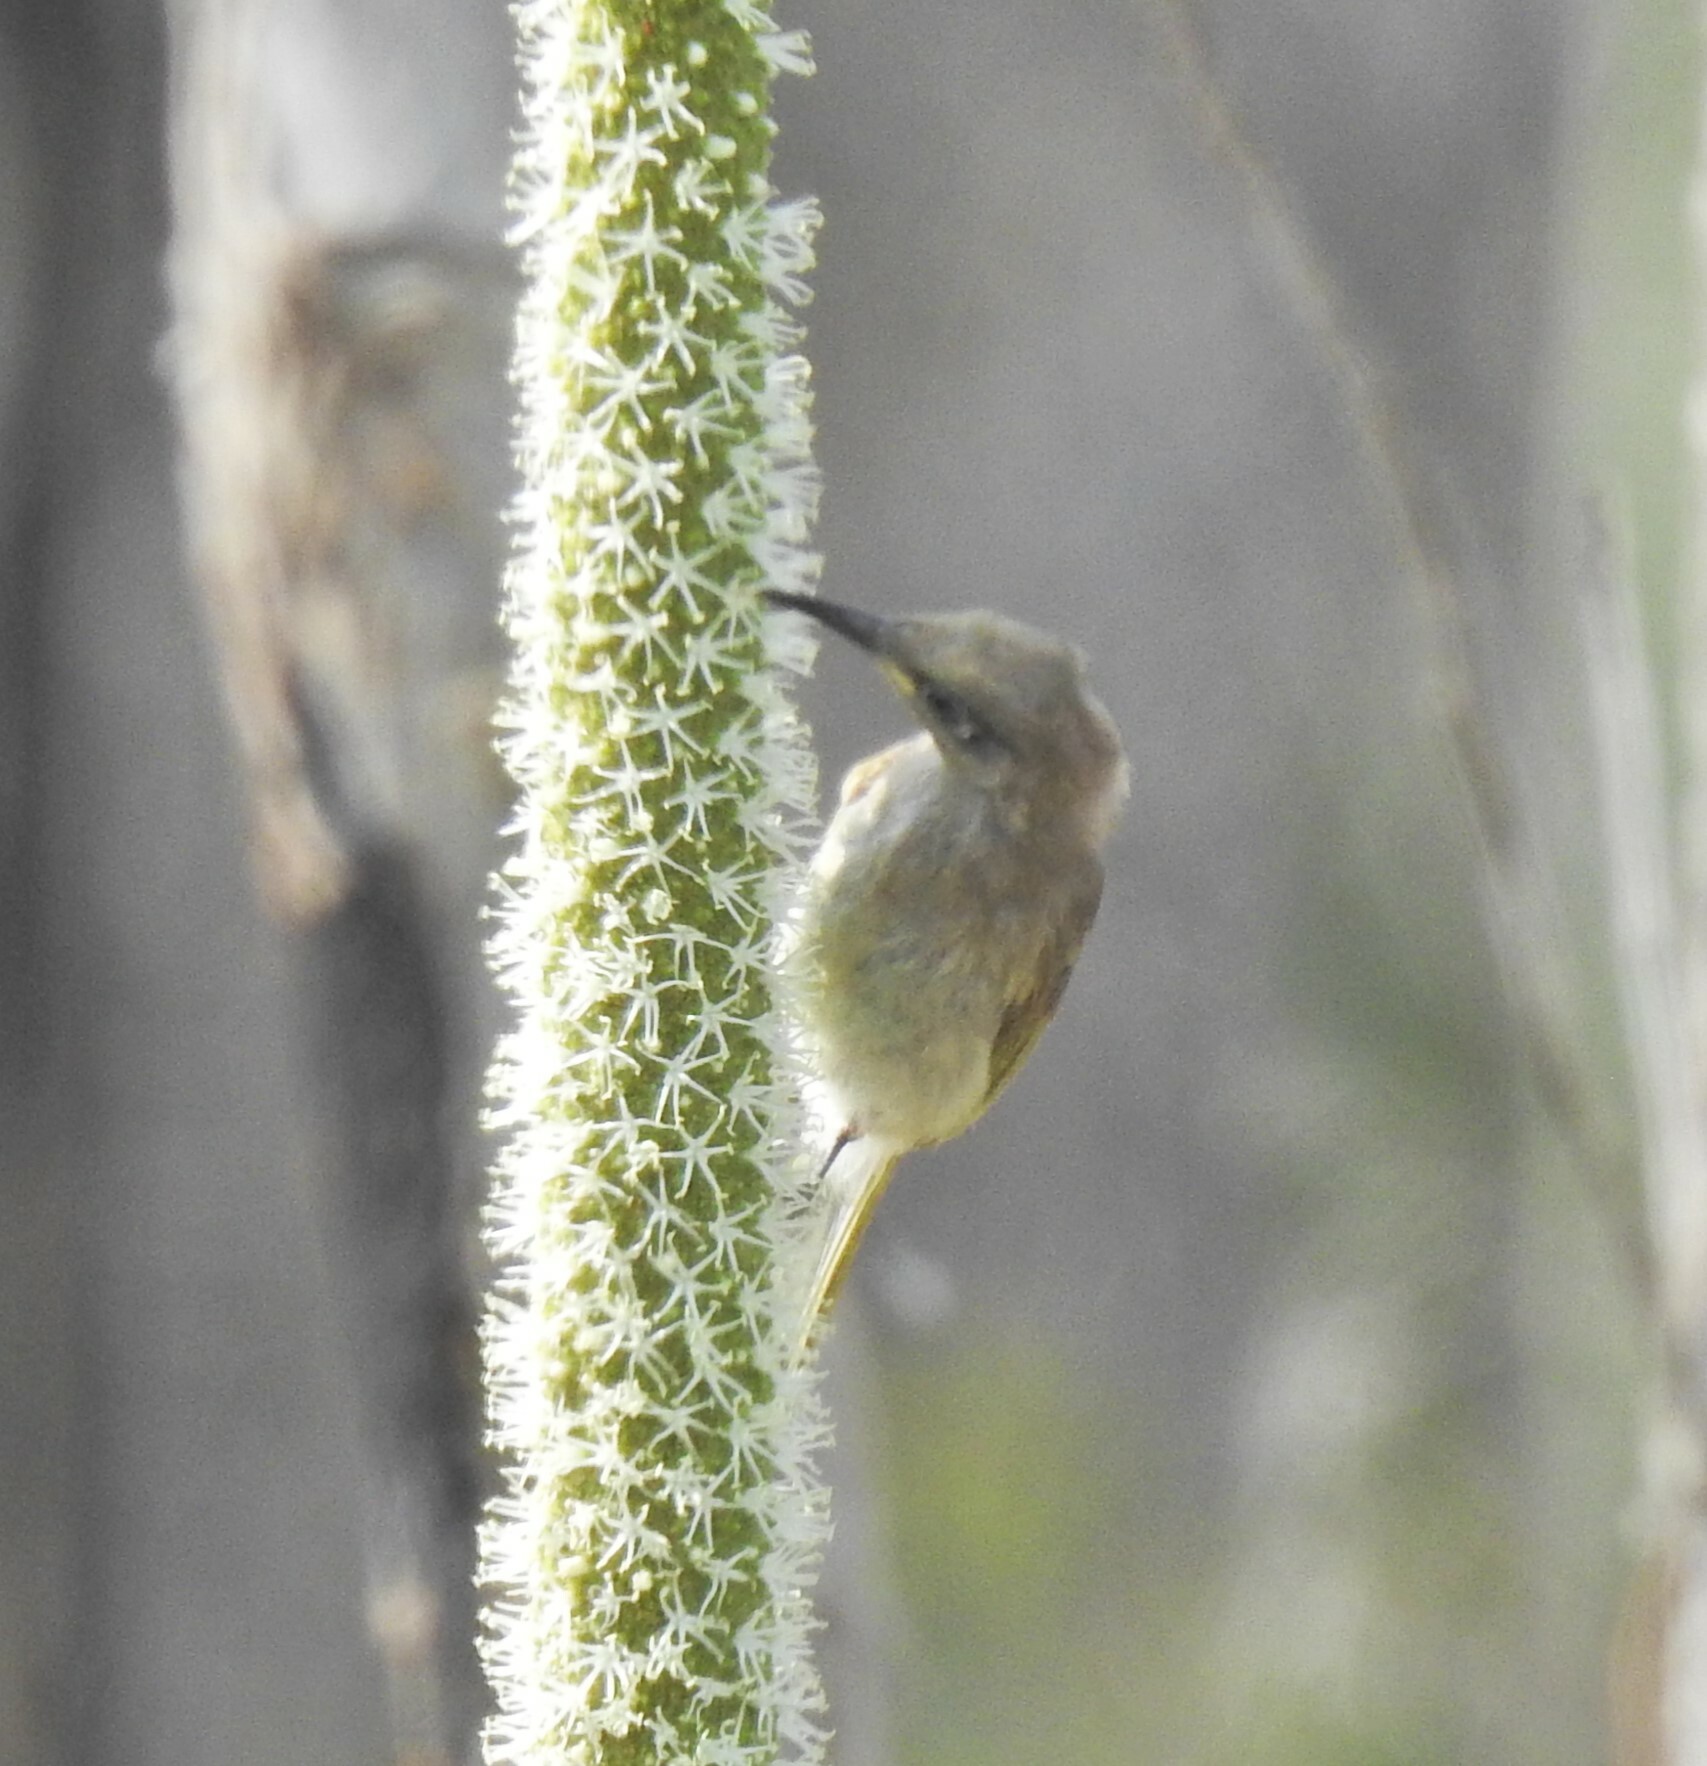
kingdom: Animalia
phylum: Chordata
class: Aves
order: Passeriformes
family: Meliphagidae
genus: Lichmera
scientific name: Lichmera indistincta
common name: Brown honeyeater
